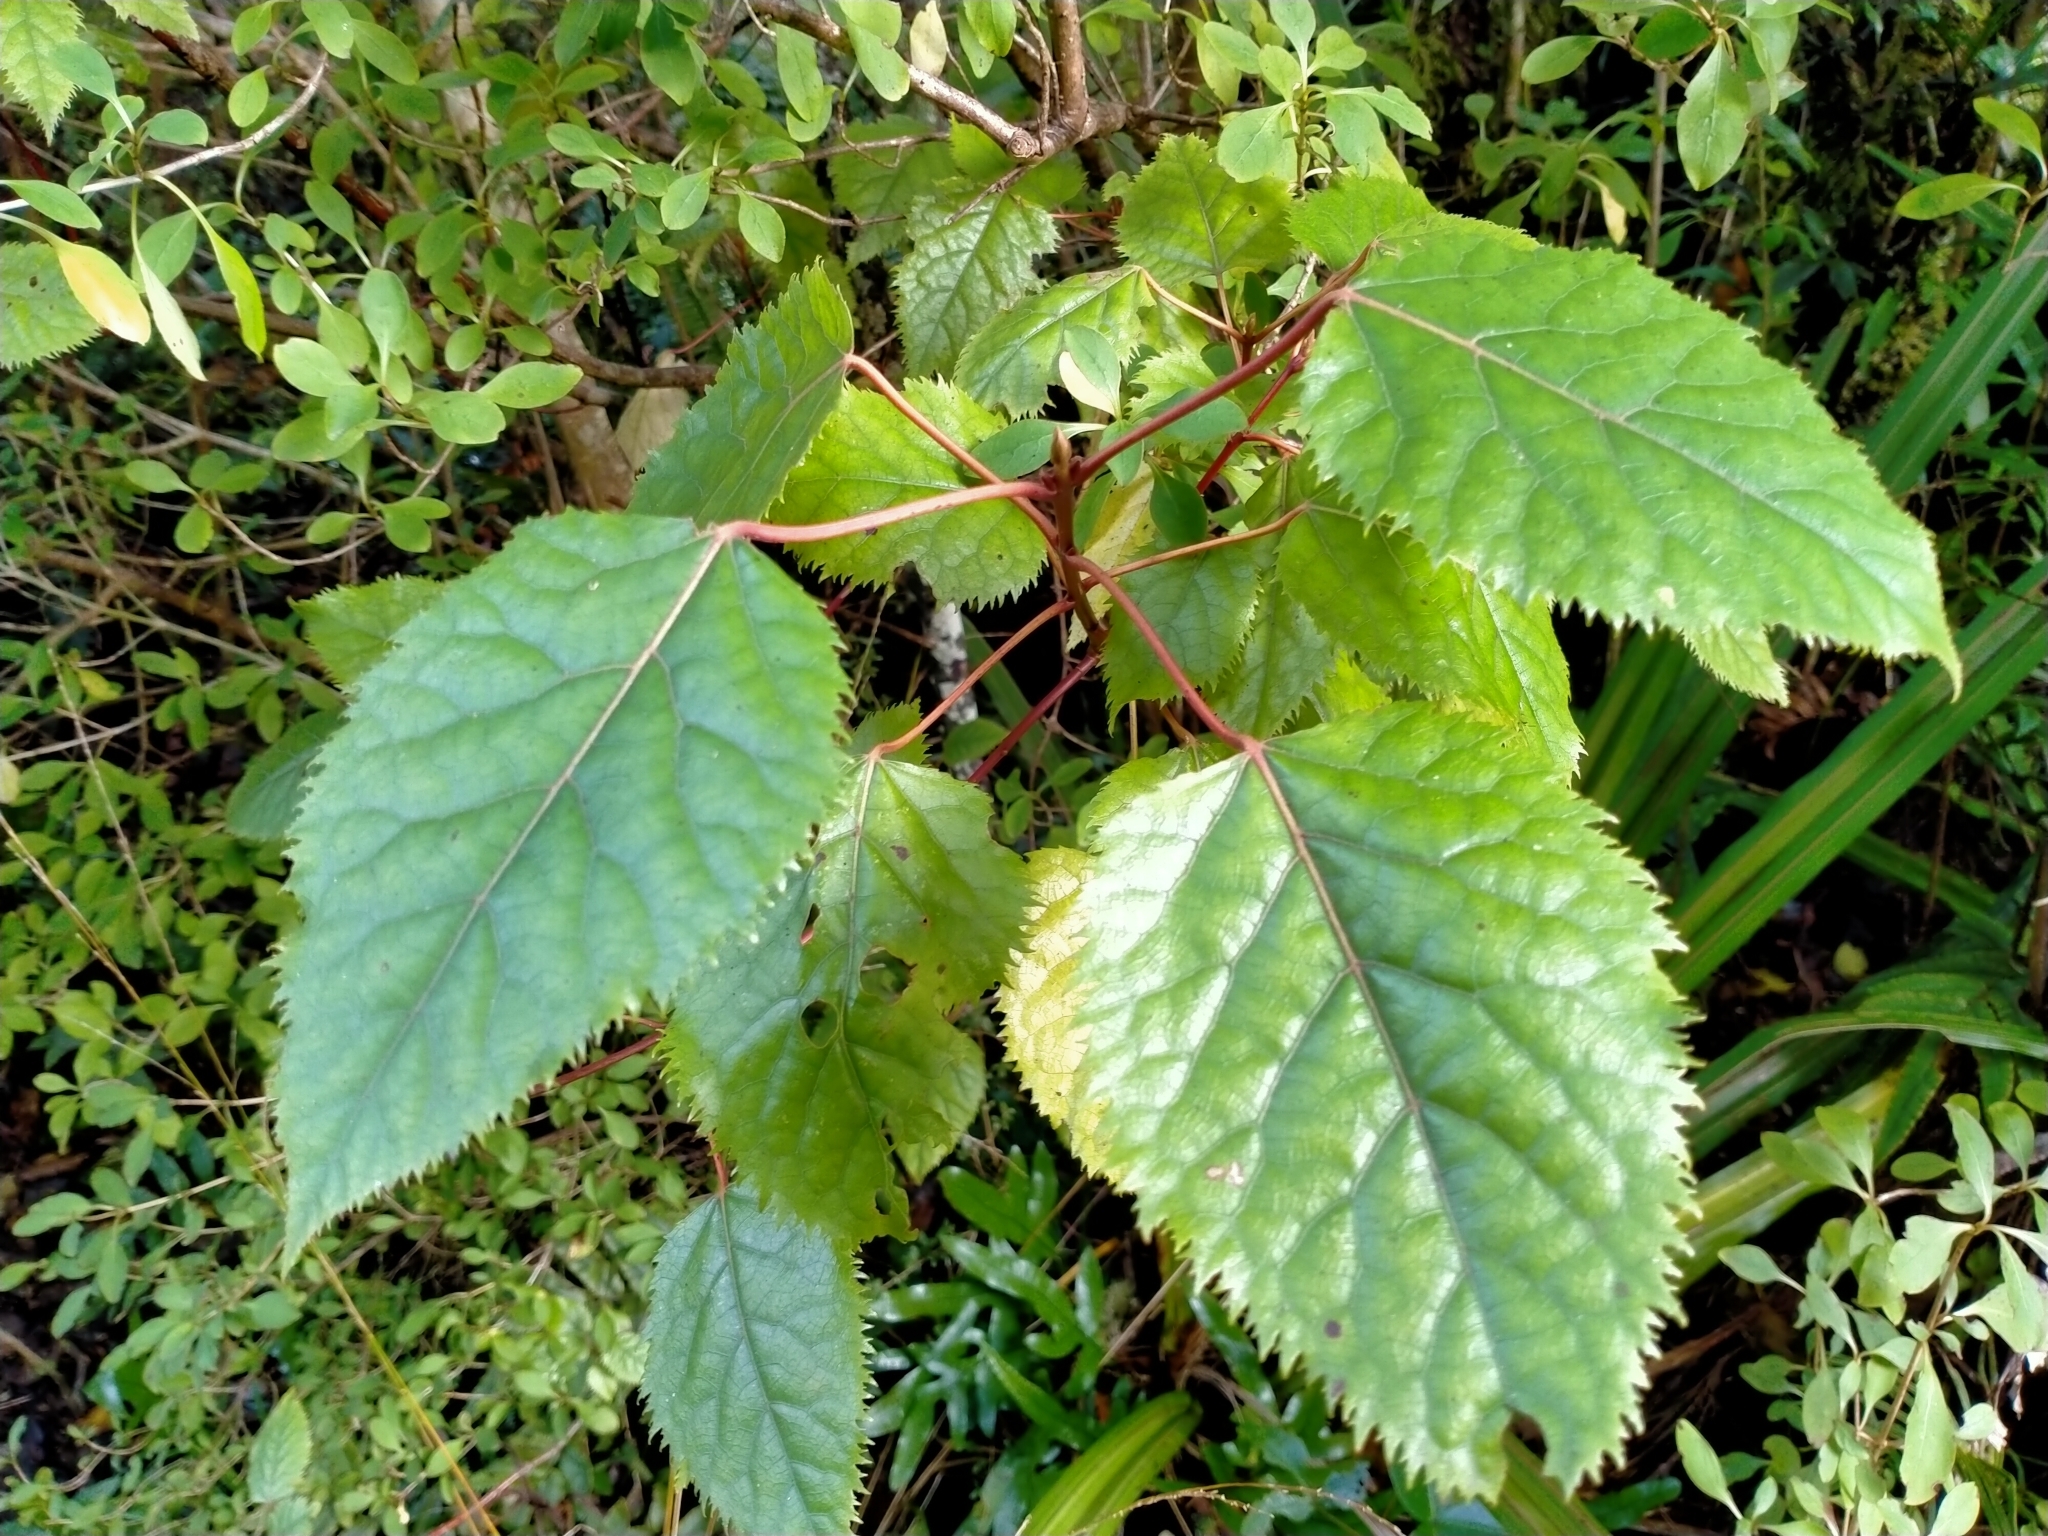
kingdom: Plantae
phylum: Tracheophyta
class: Magnoliopsida
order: Oxalidales
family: Elaeocarpaceae
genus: Aristotelia
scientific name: Aristotelia serrata
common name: New zealand wineberry
